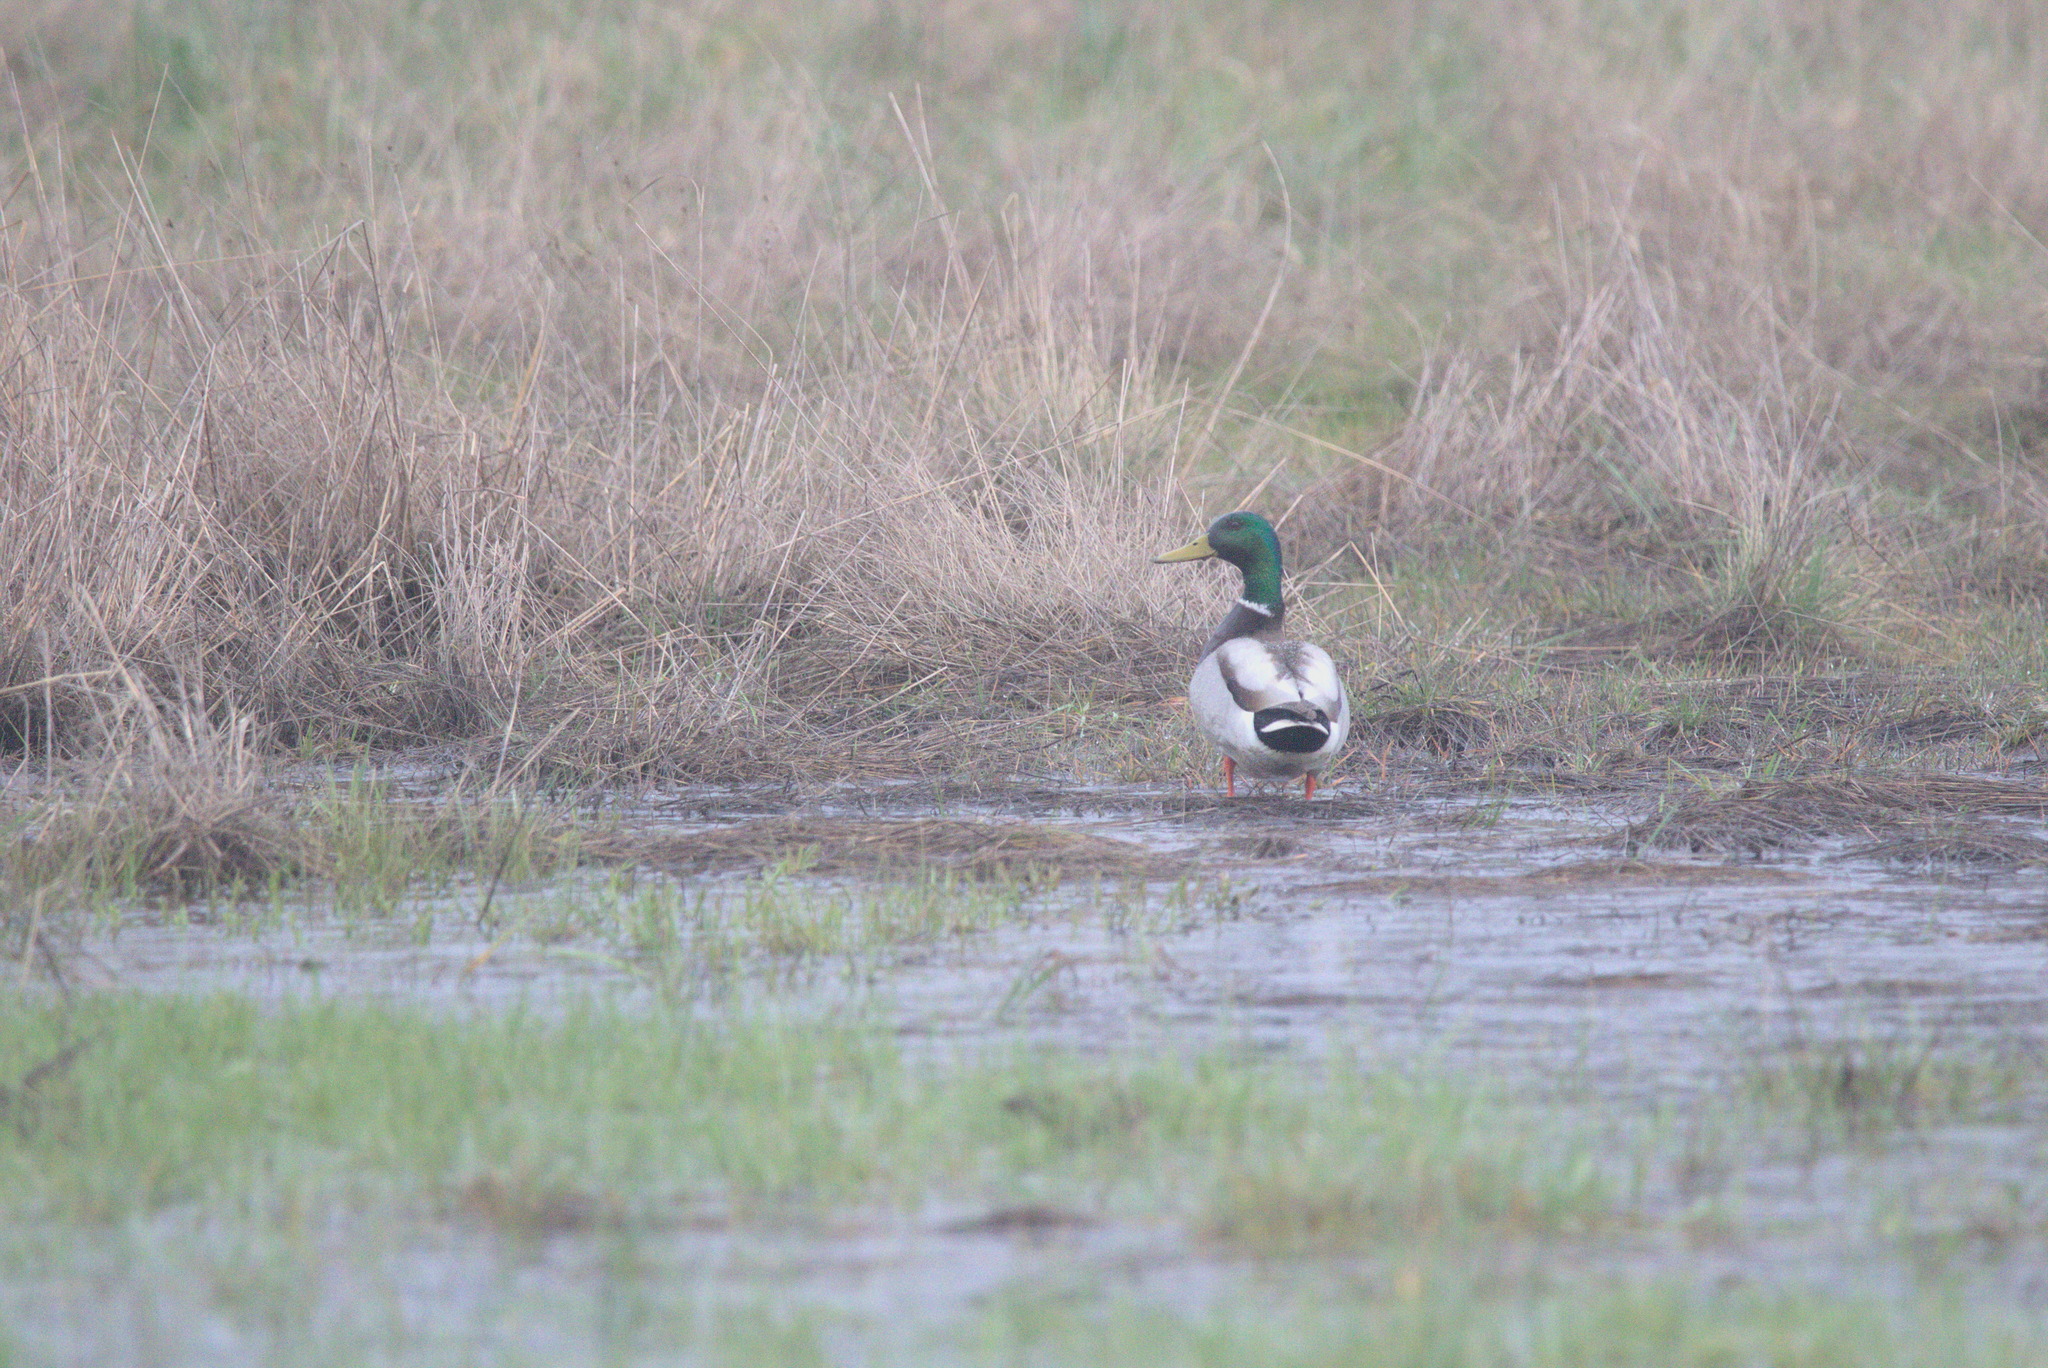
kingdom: Animalia
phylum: Chordata
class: Aves
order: Anseriformes
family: Anatidae
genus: Anas
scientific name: Anas platyrhynchos
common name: Mallard
